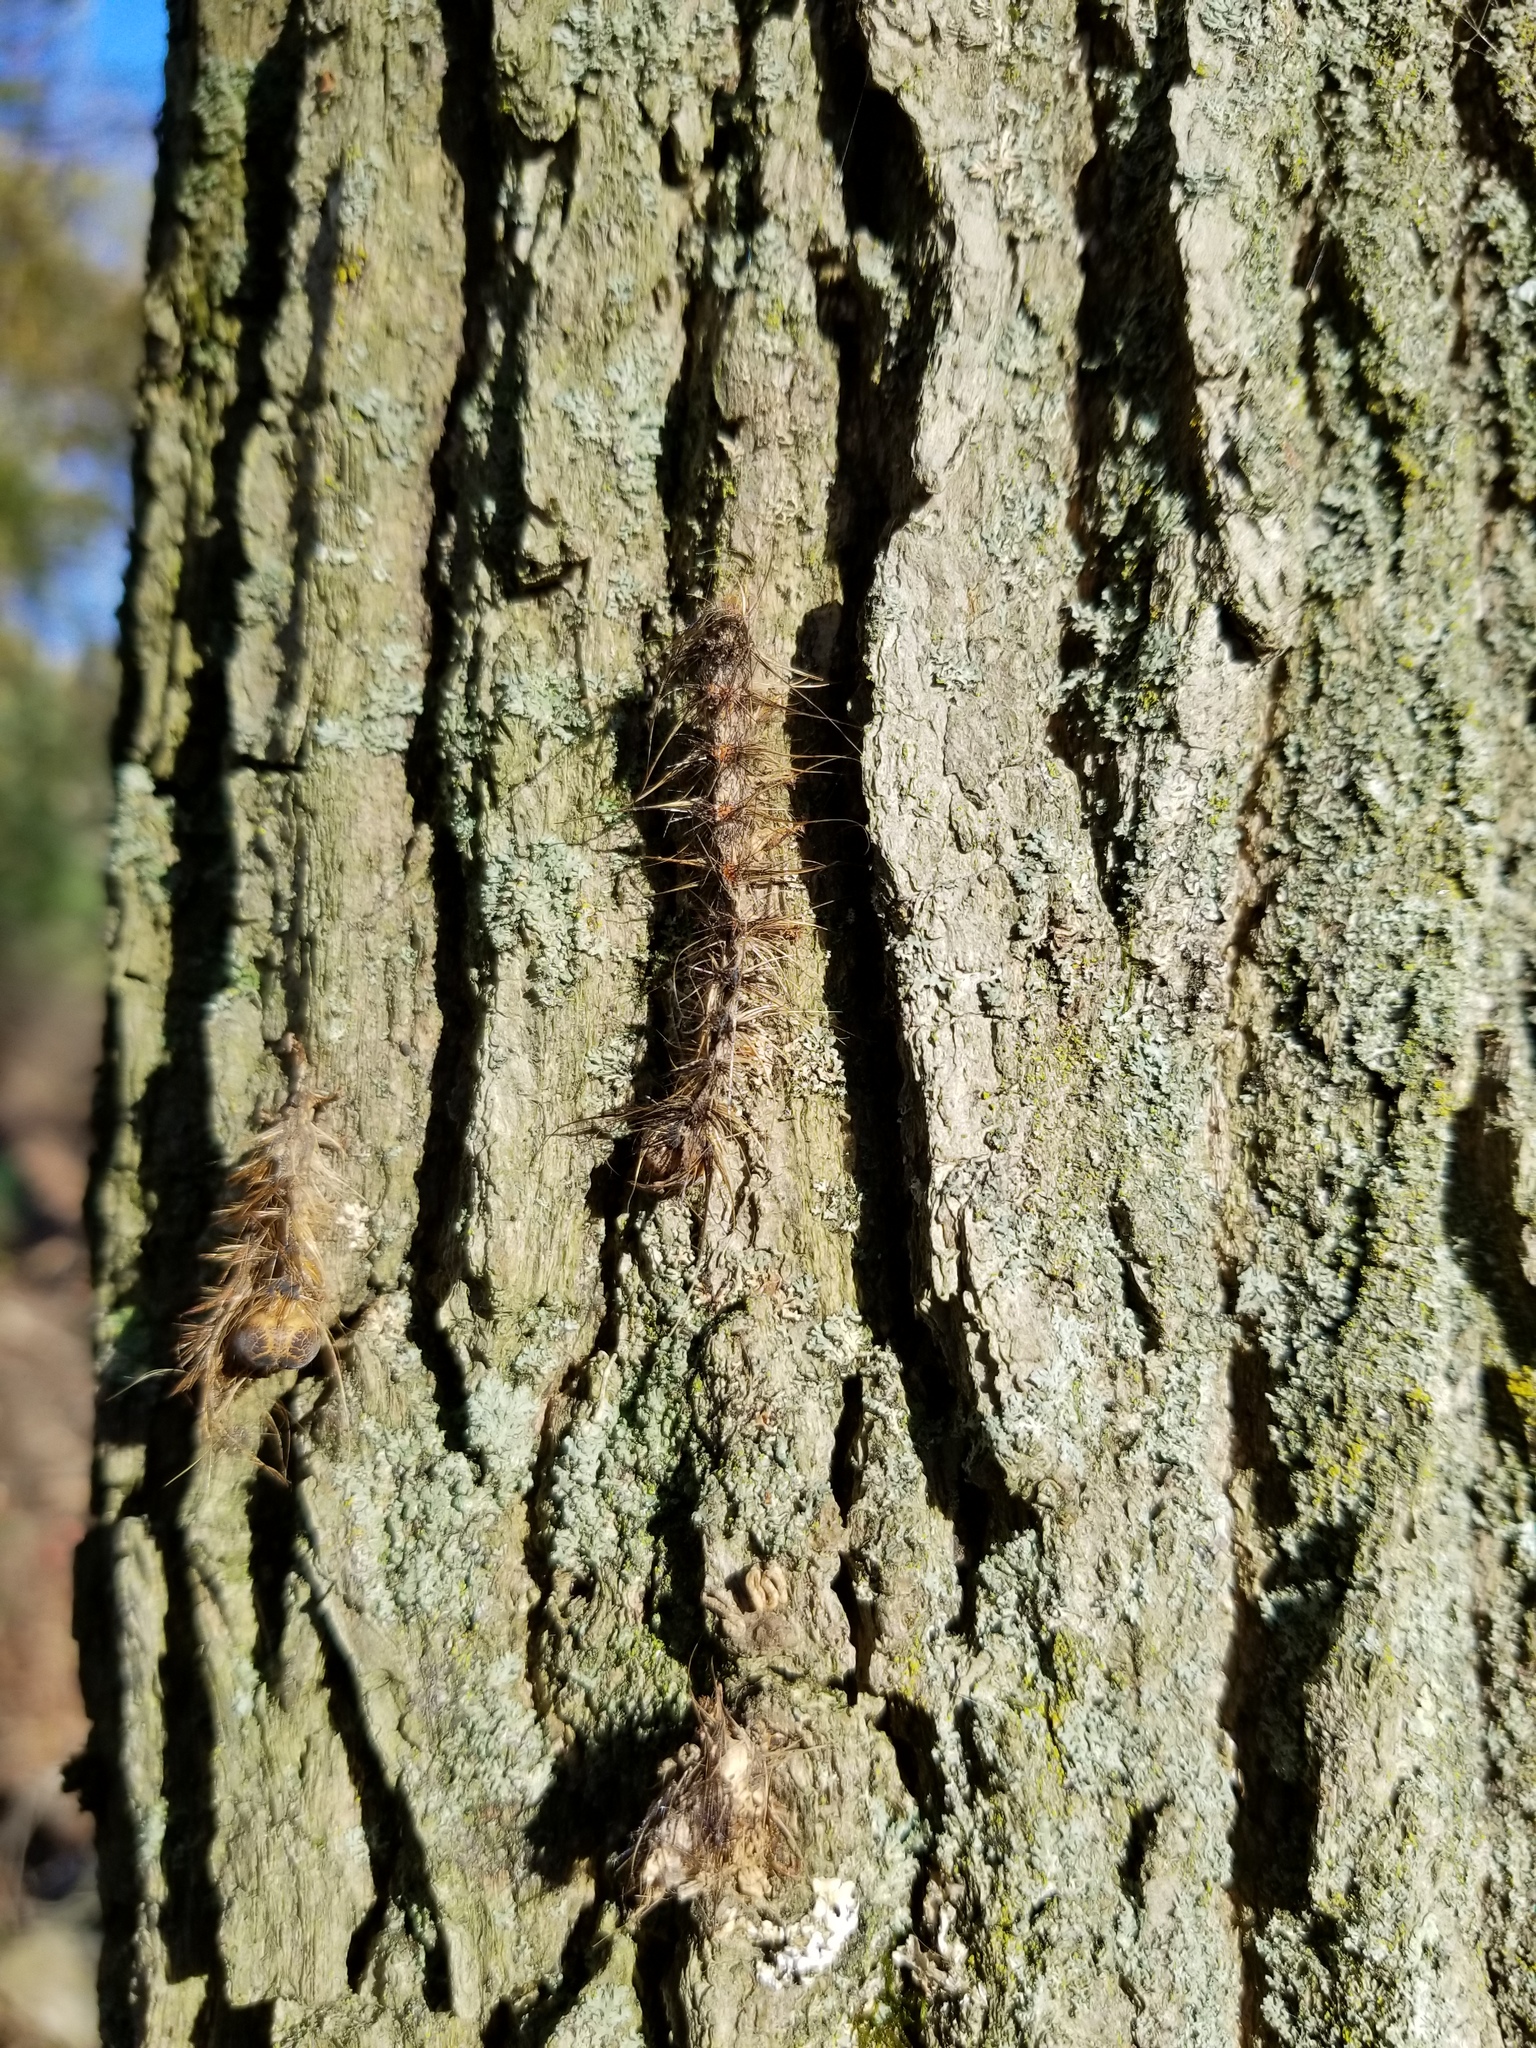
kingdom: Animalia
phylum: Arthropoda
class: Insecta
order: Lepidoptera
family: Erebidae
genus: Lymantria
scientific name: Lymantria dispar
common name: Gypsy moth
